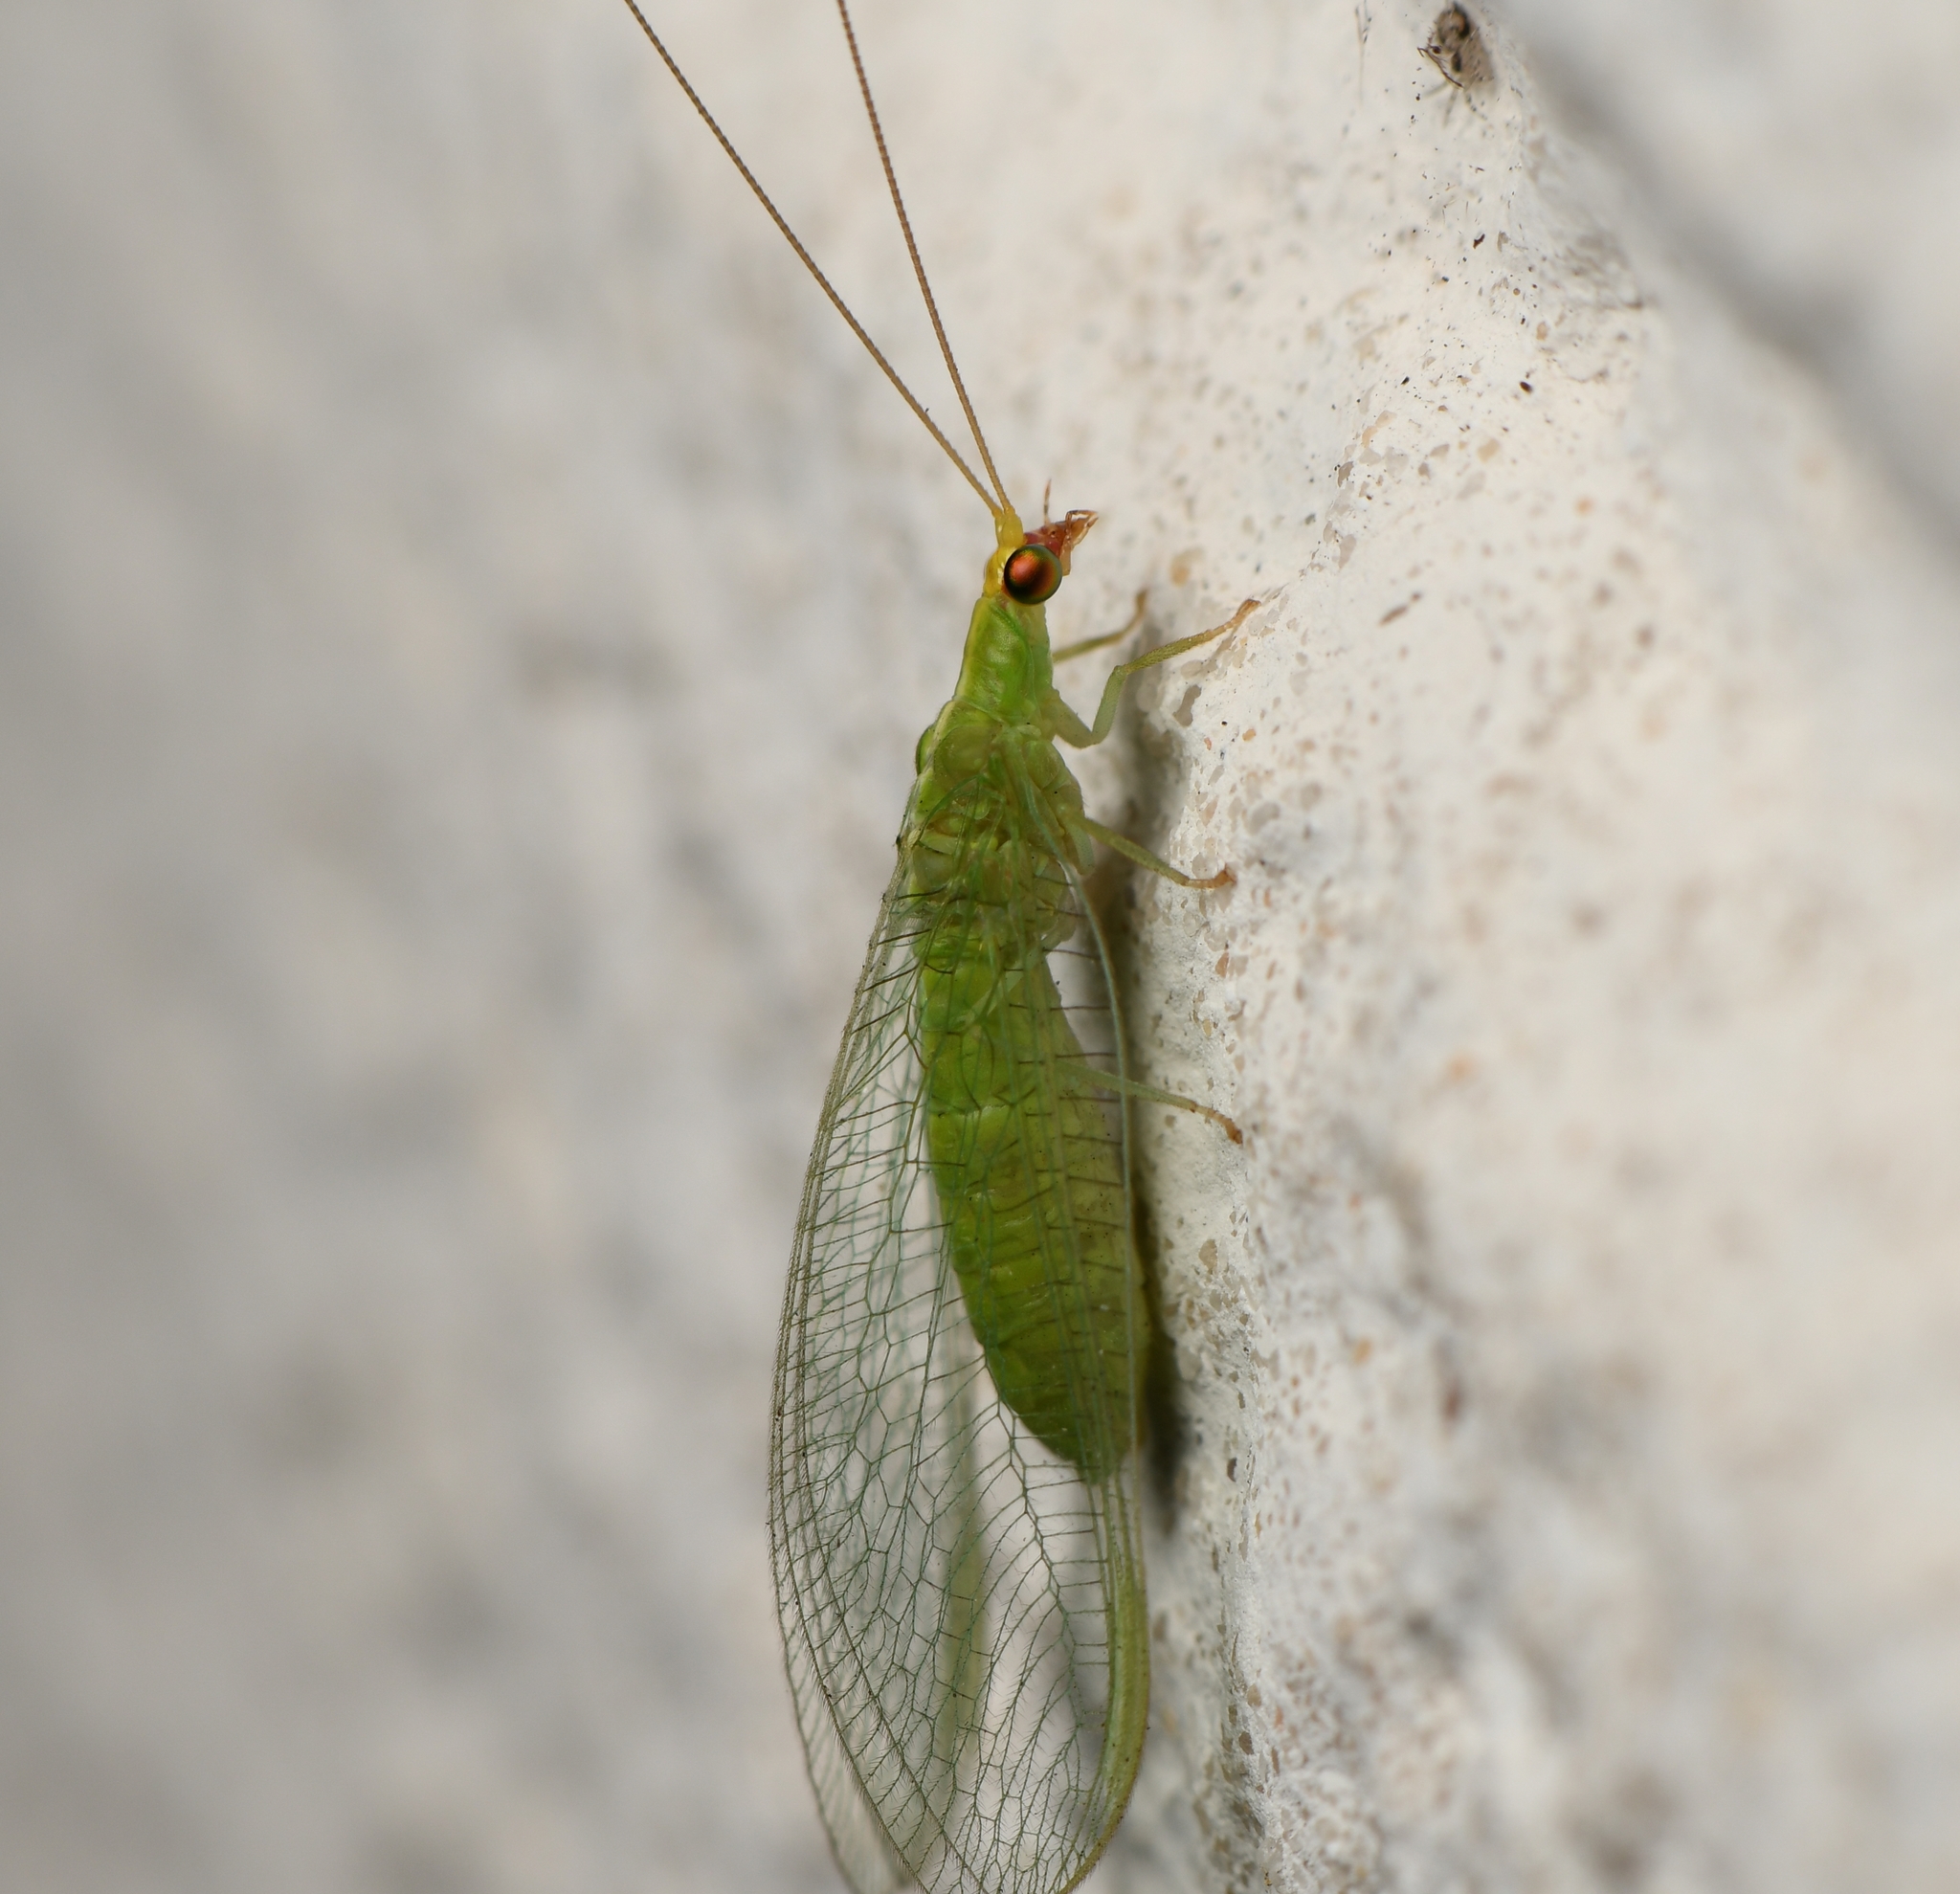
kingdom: Animalia
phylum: Arthropoda
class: Insecta
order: Neuroptera
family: Chrysopidae
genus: Chrysopodes
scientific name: Chrysopodes collaris
